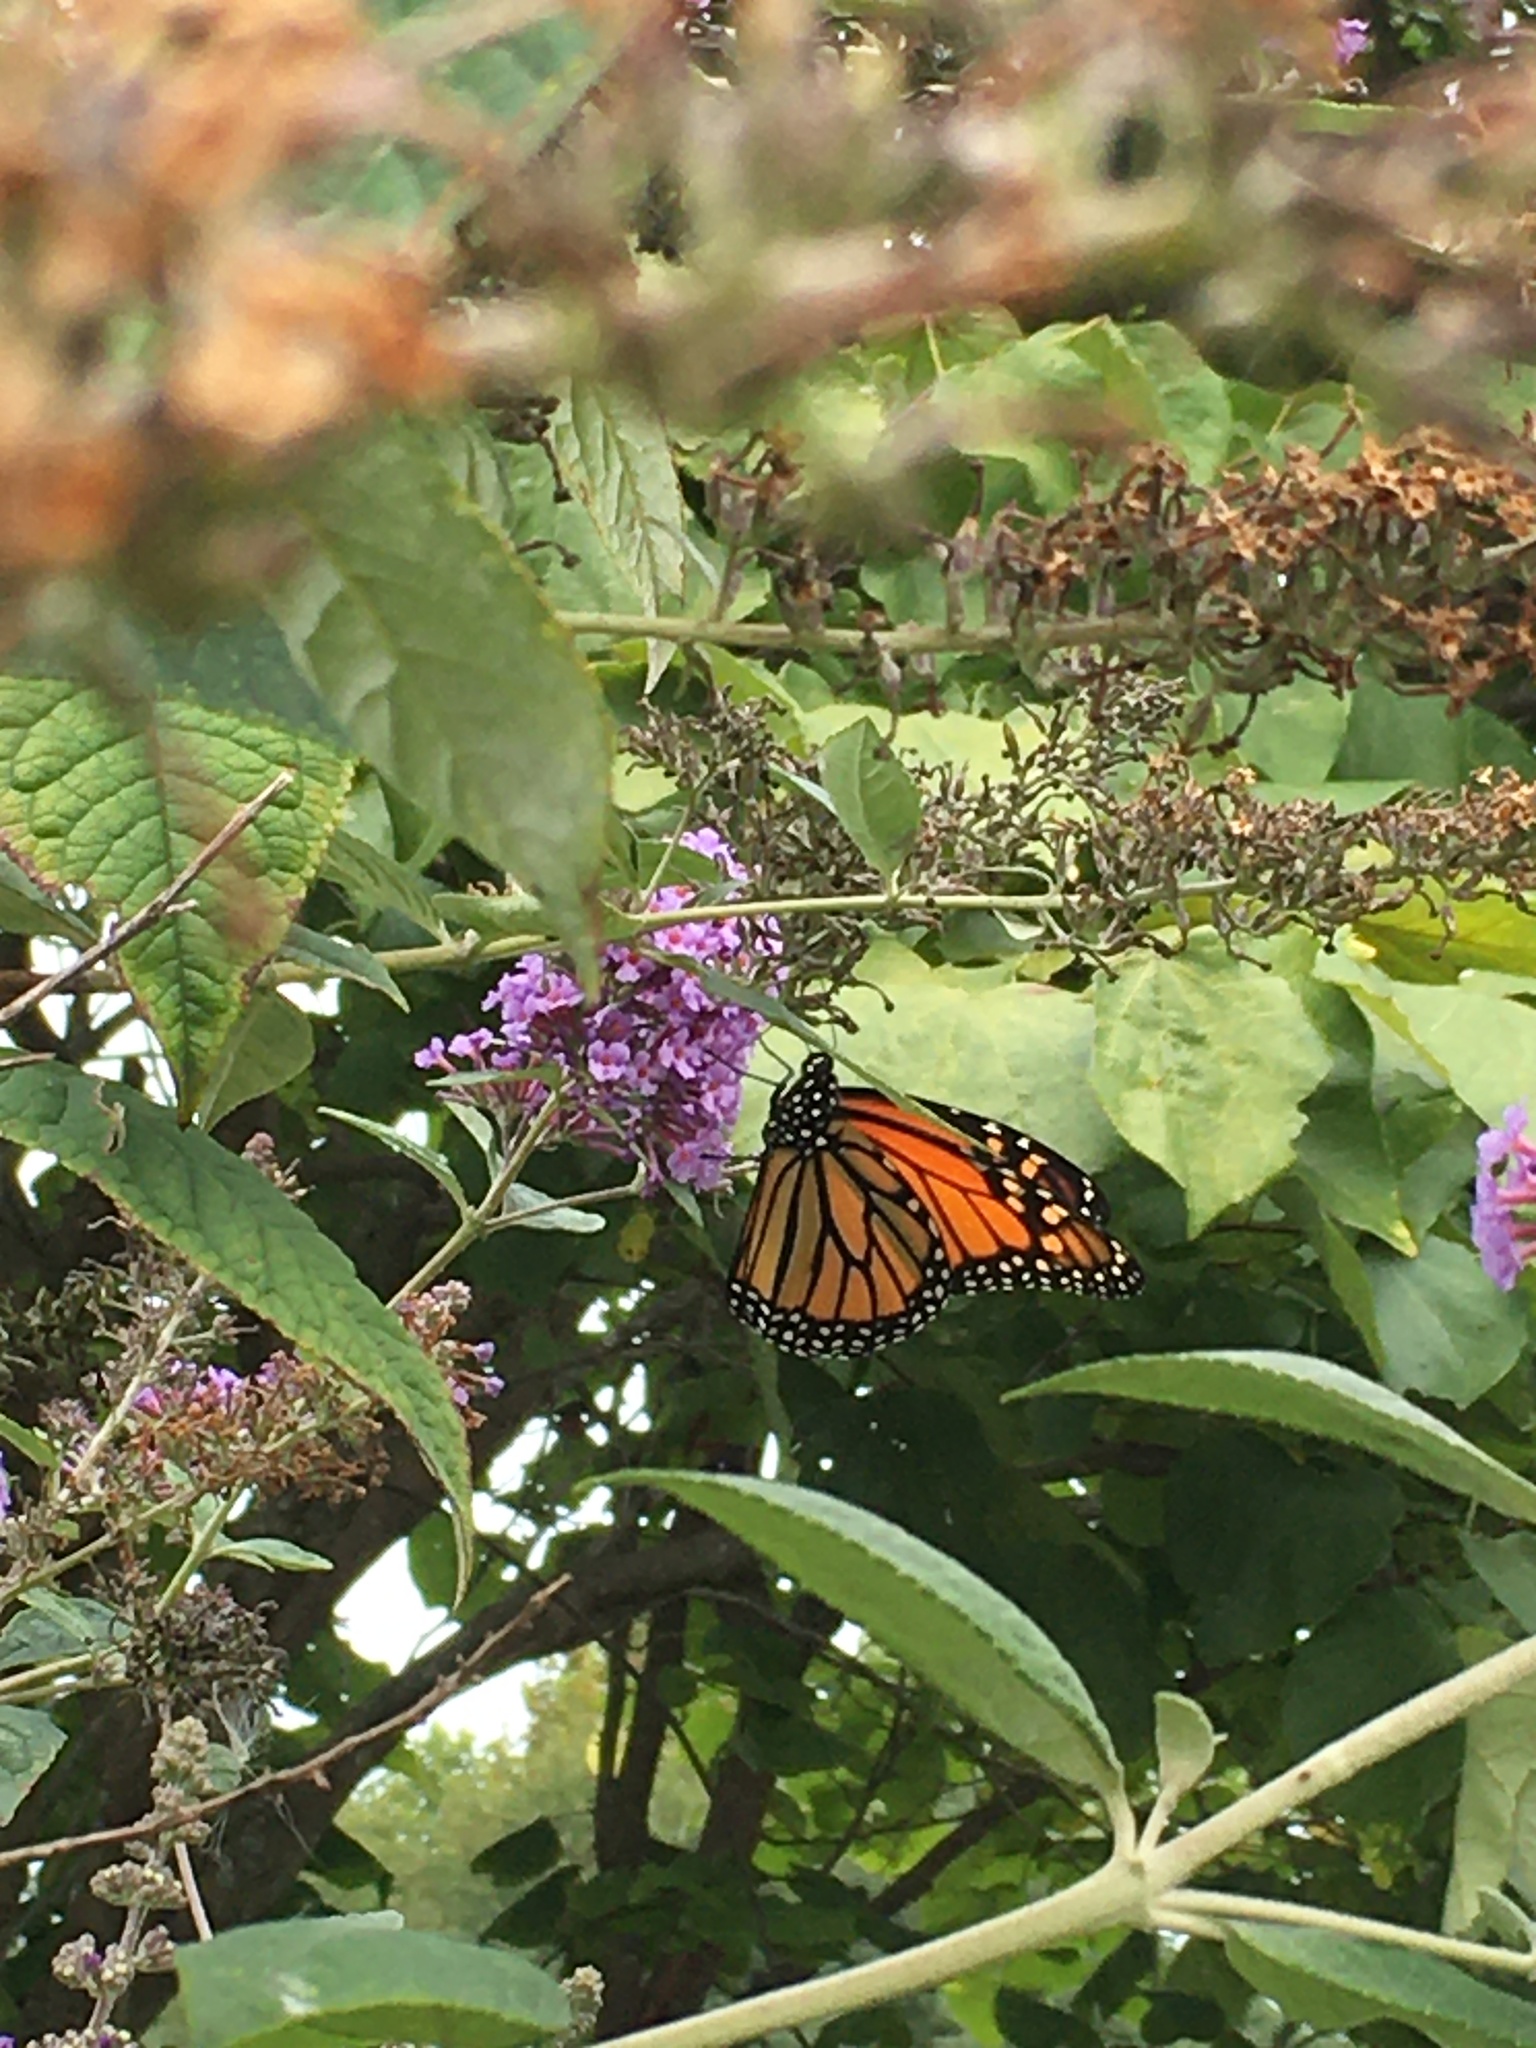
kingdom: Animalia
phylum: Arthropoda
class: Insecta
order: Lepidoptera
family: Nymphalidae
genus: Danaus
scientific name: Danaus plexippus
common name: Monarch
